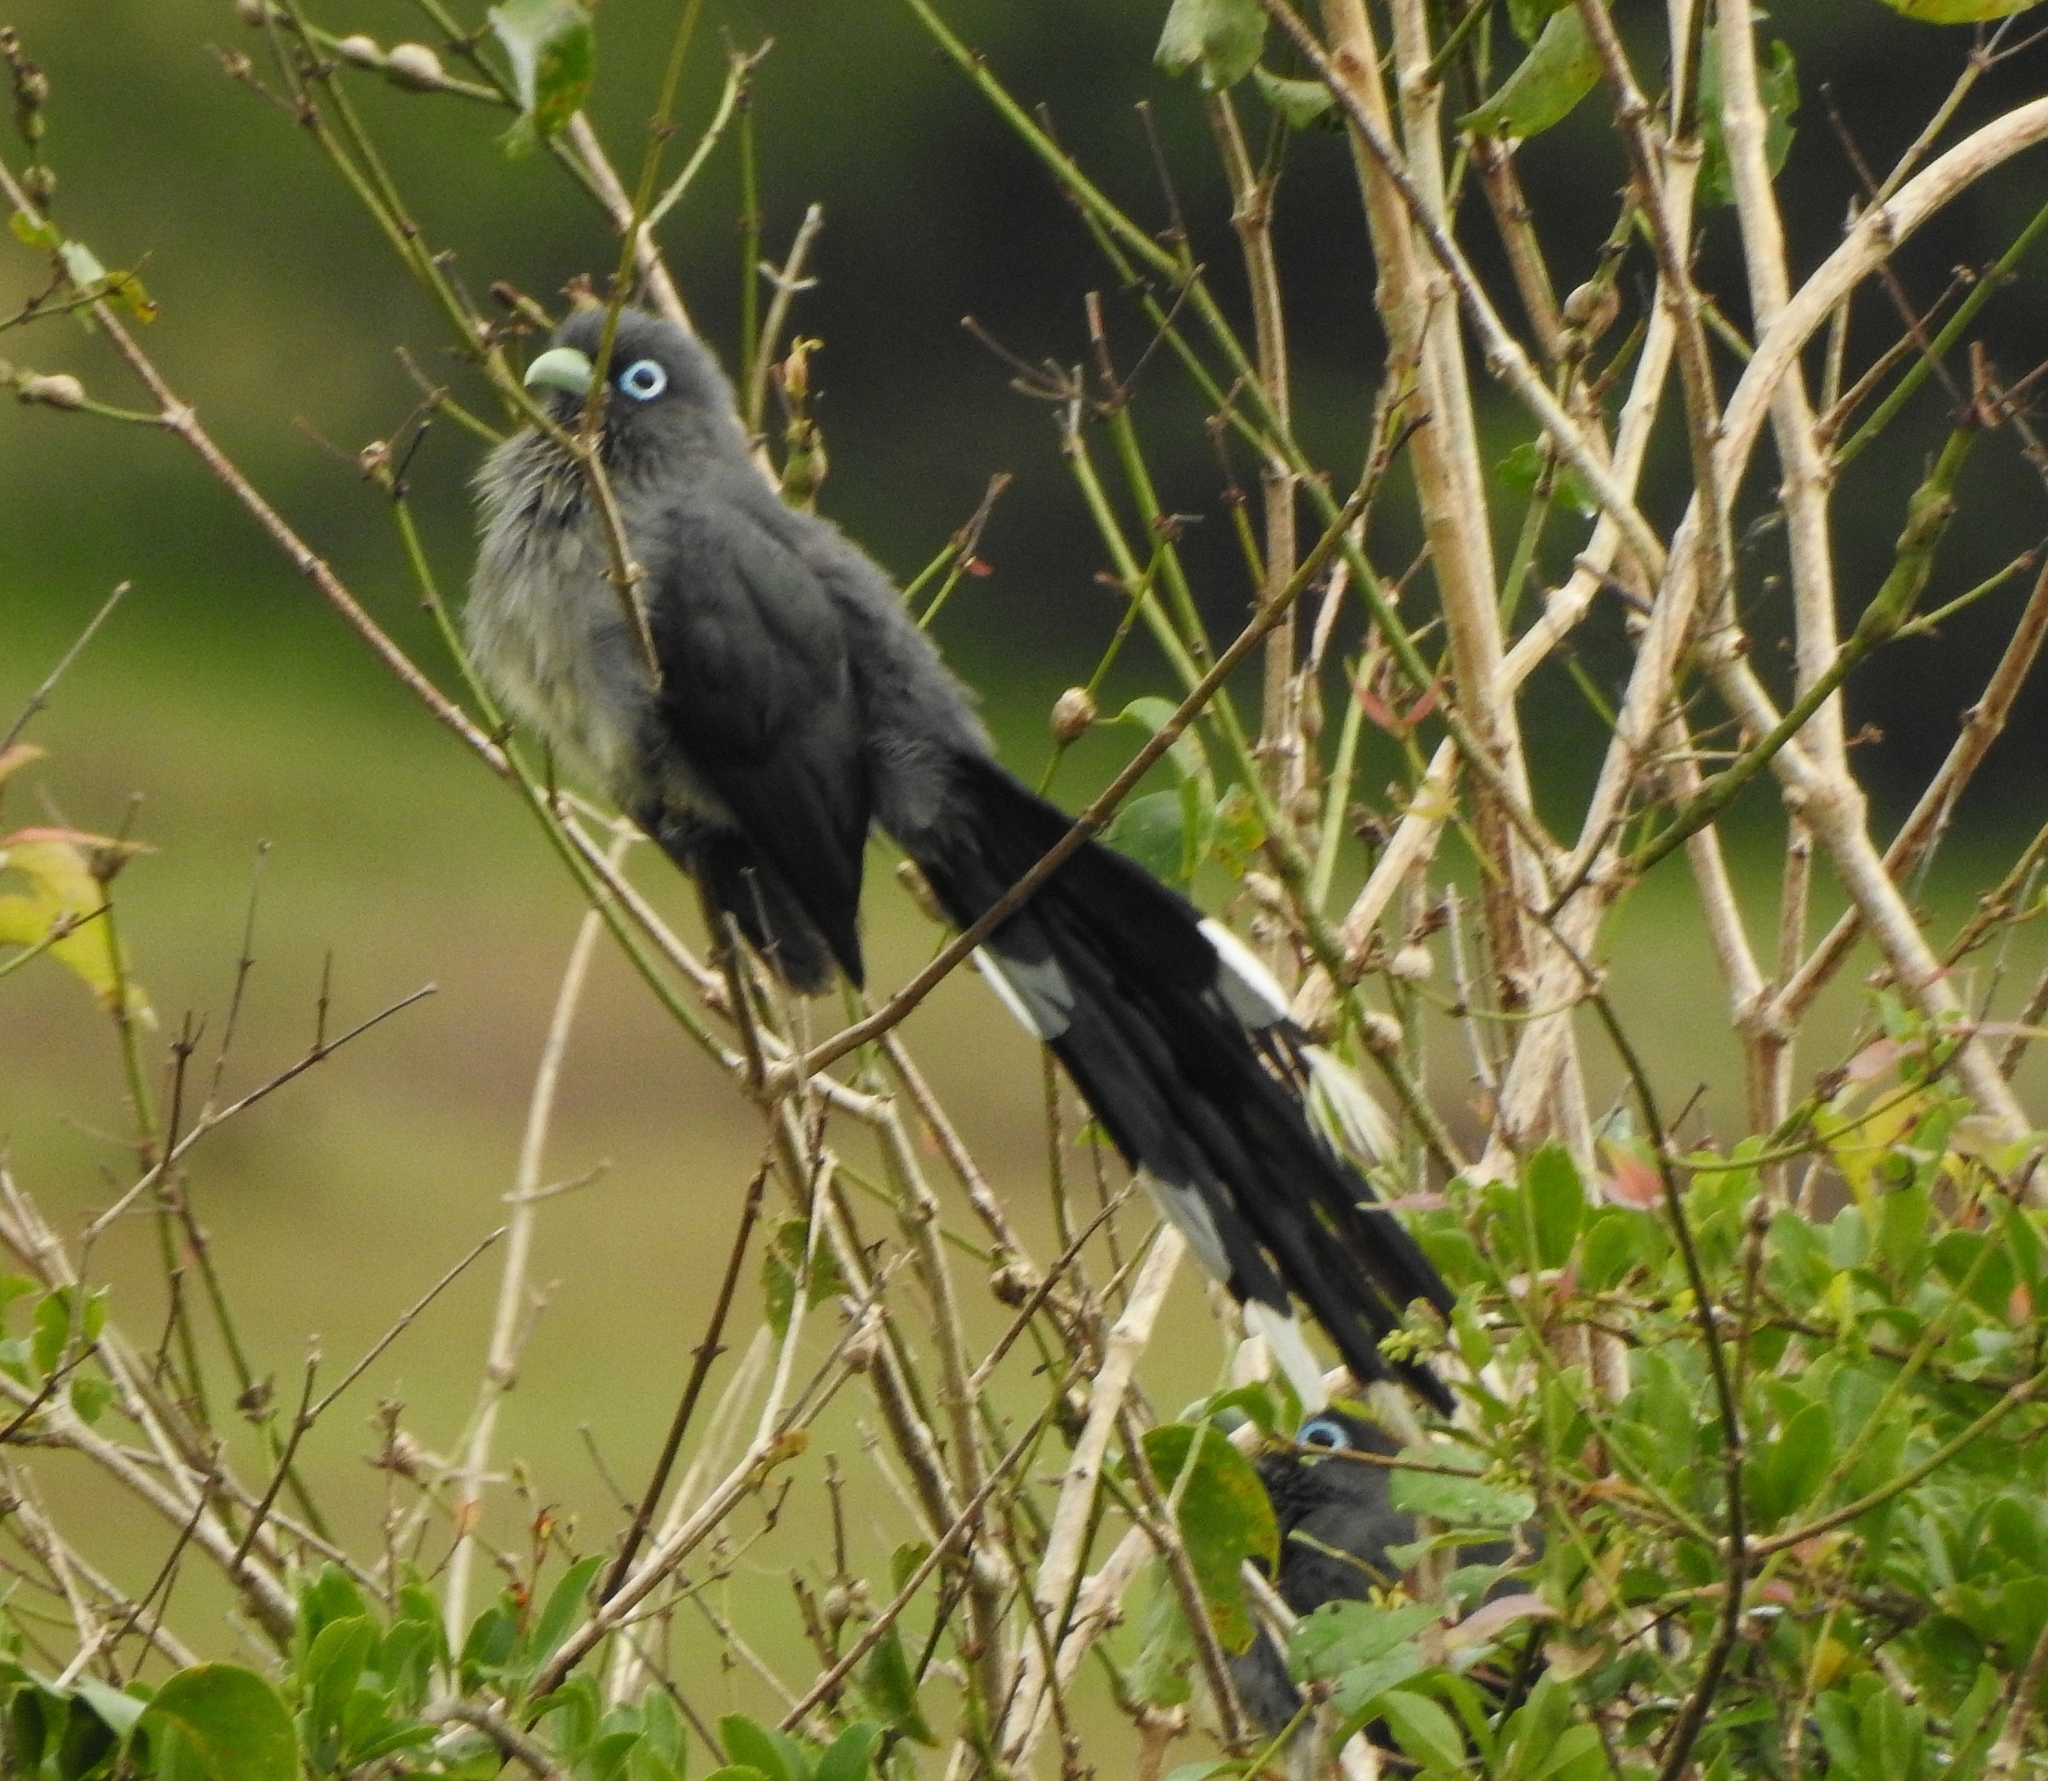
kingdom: Animalia
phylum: Chordata
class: Aves
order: Cuculiformes
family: Cuculidae
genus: Rhopodytes
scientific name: Rhopodytes viridirostris
